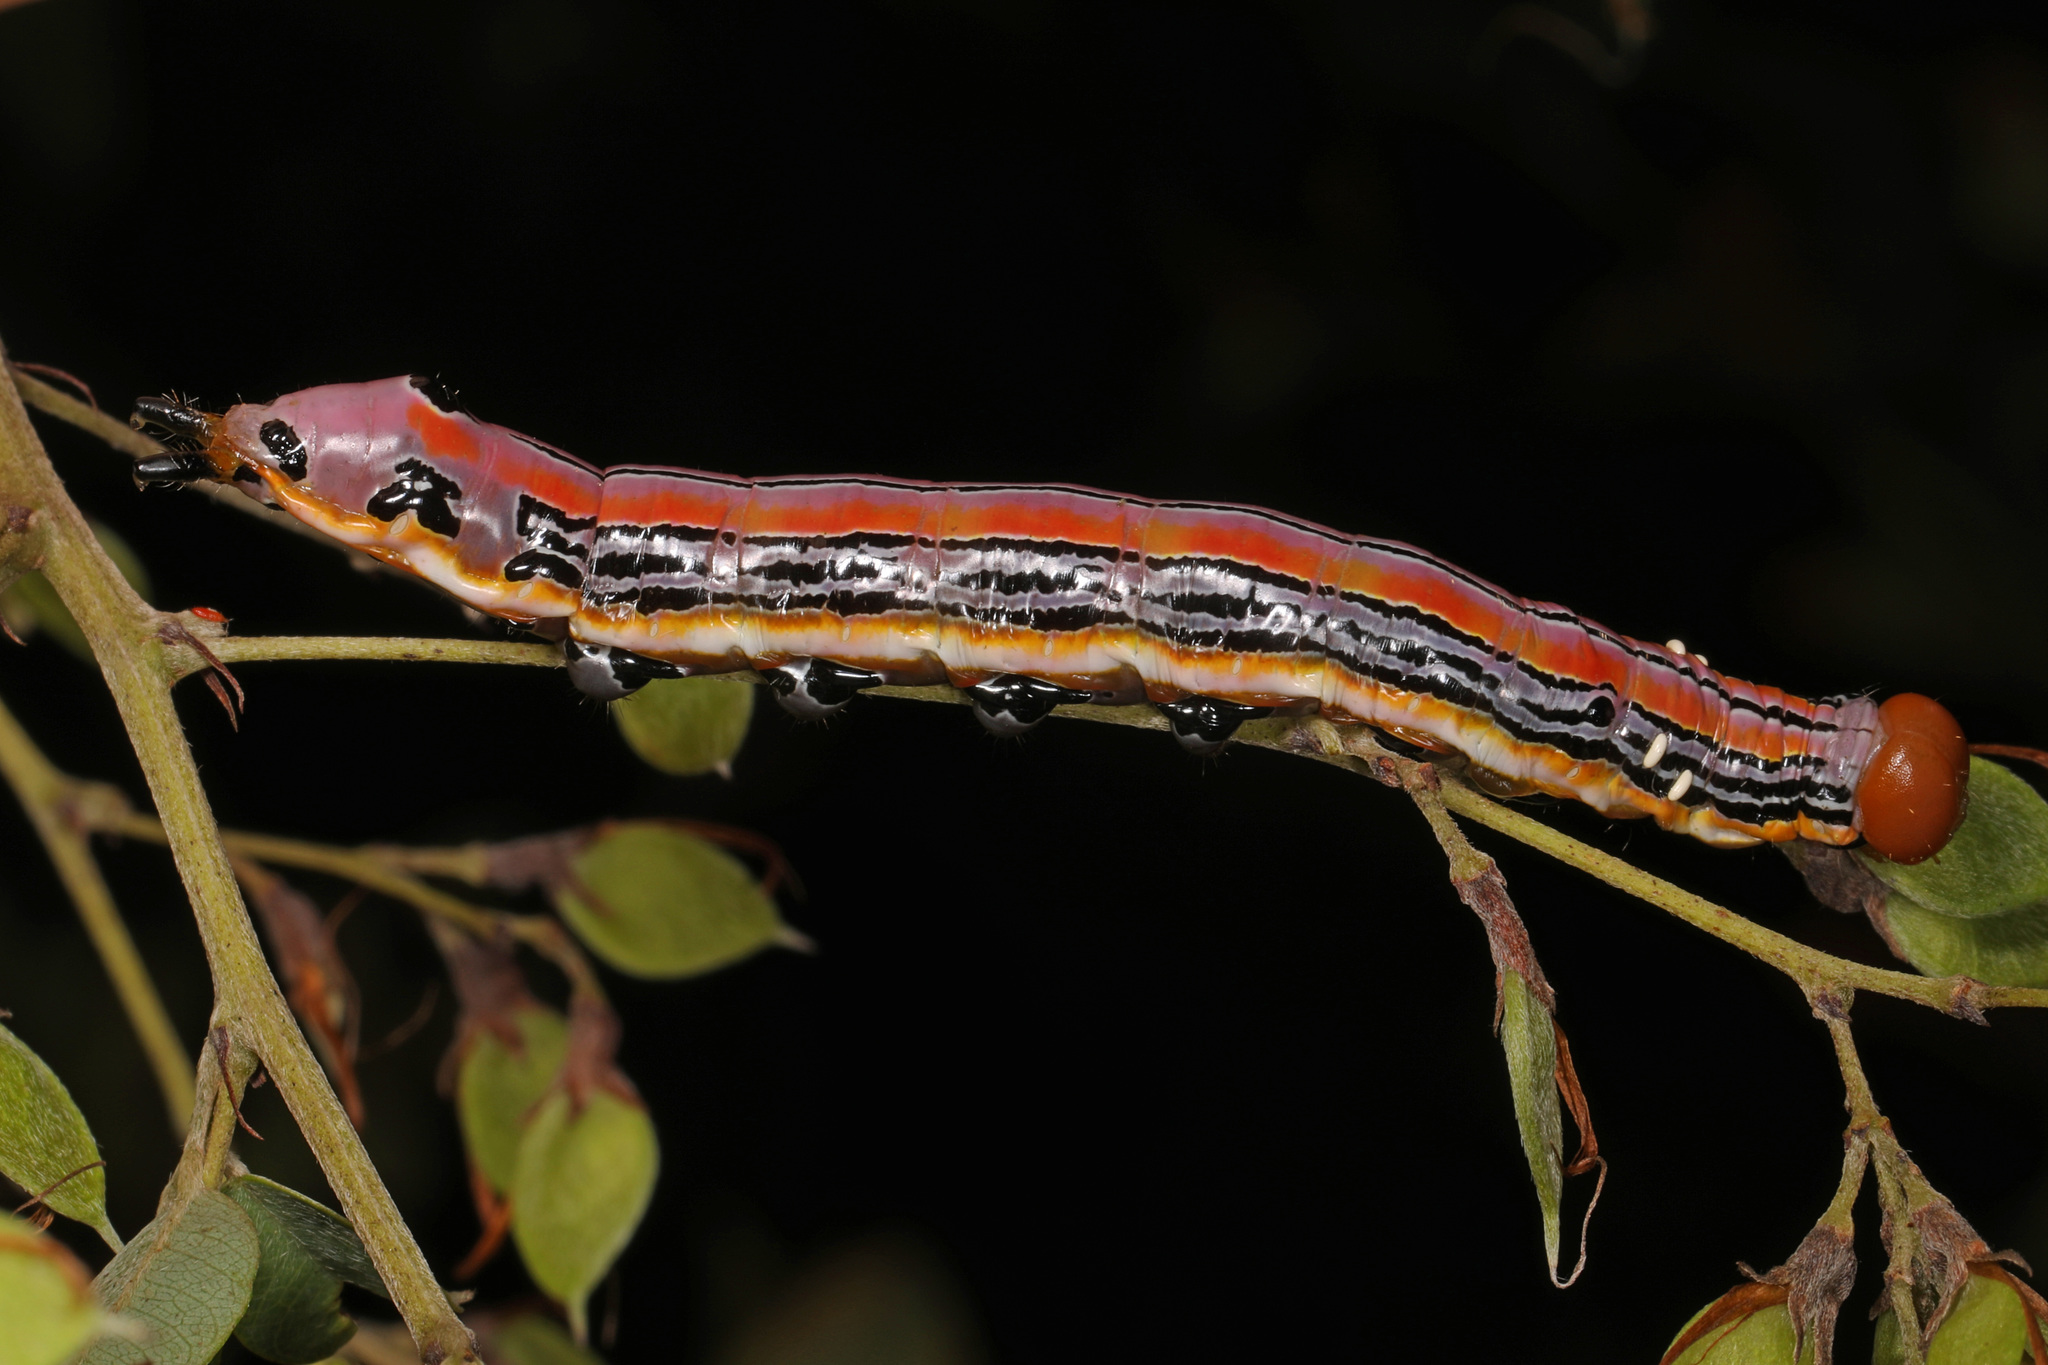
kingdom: Animalia
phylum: Arthropoda
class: Insecta
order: Lepidoptera
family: Notodontidae
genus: Dasylophia
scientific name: Dasylophia anguina
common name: Black-spotted prominent
